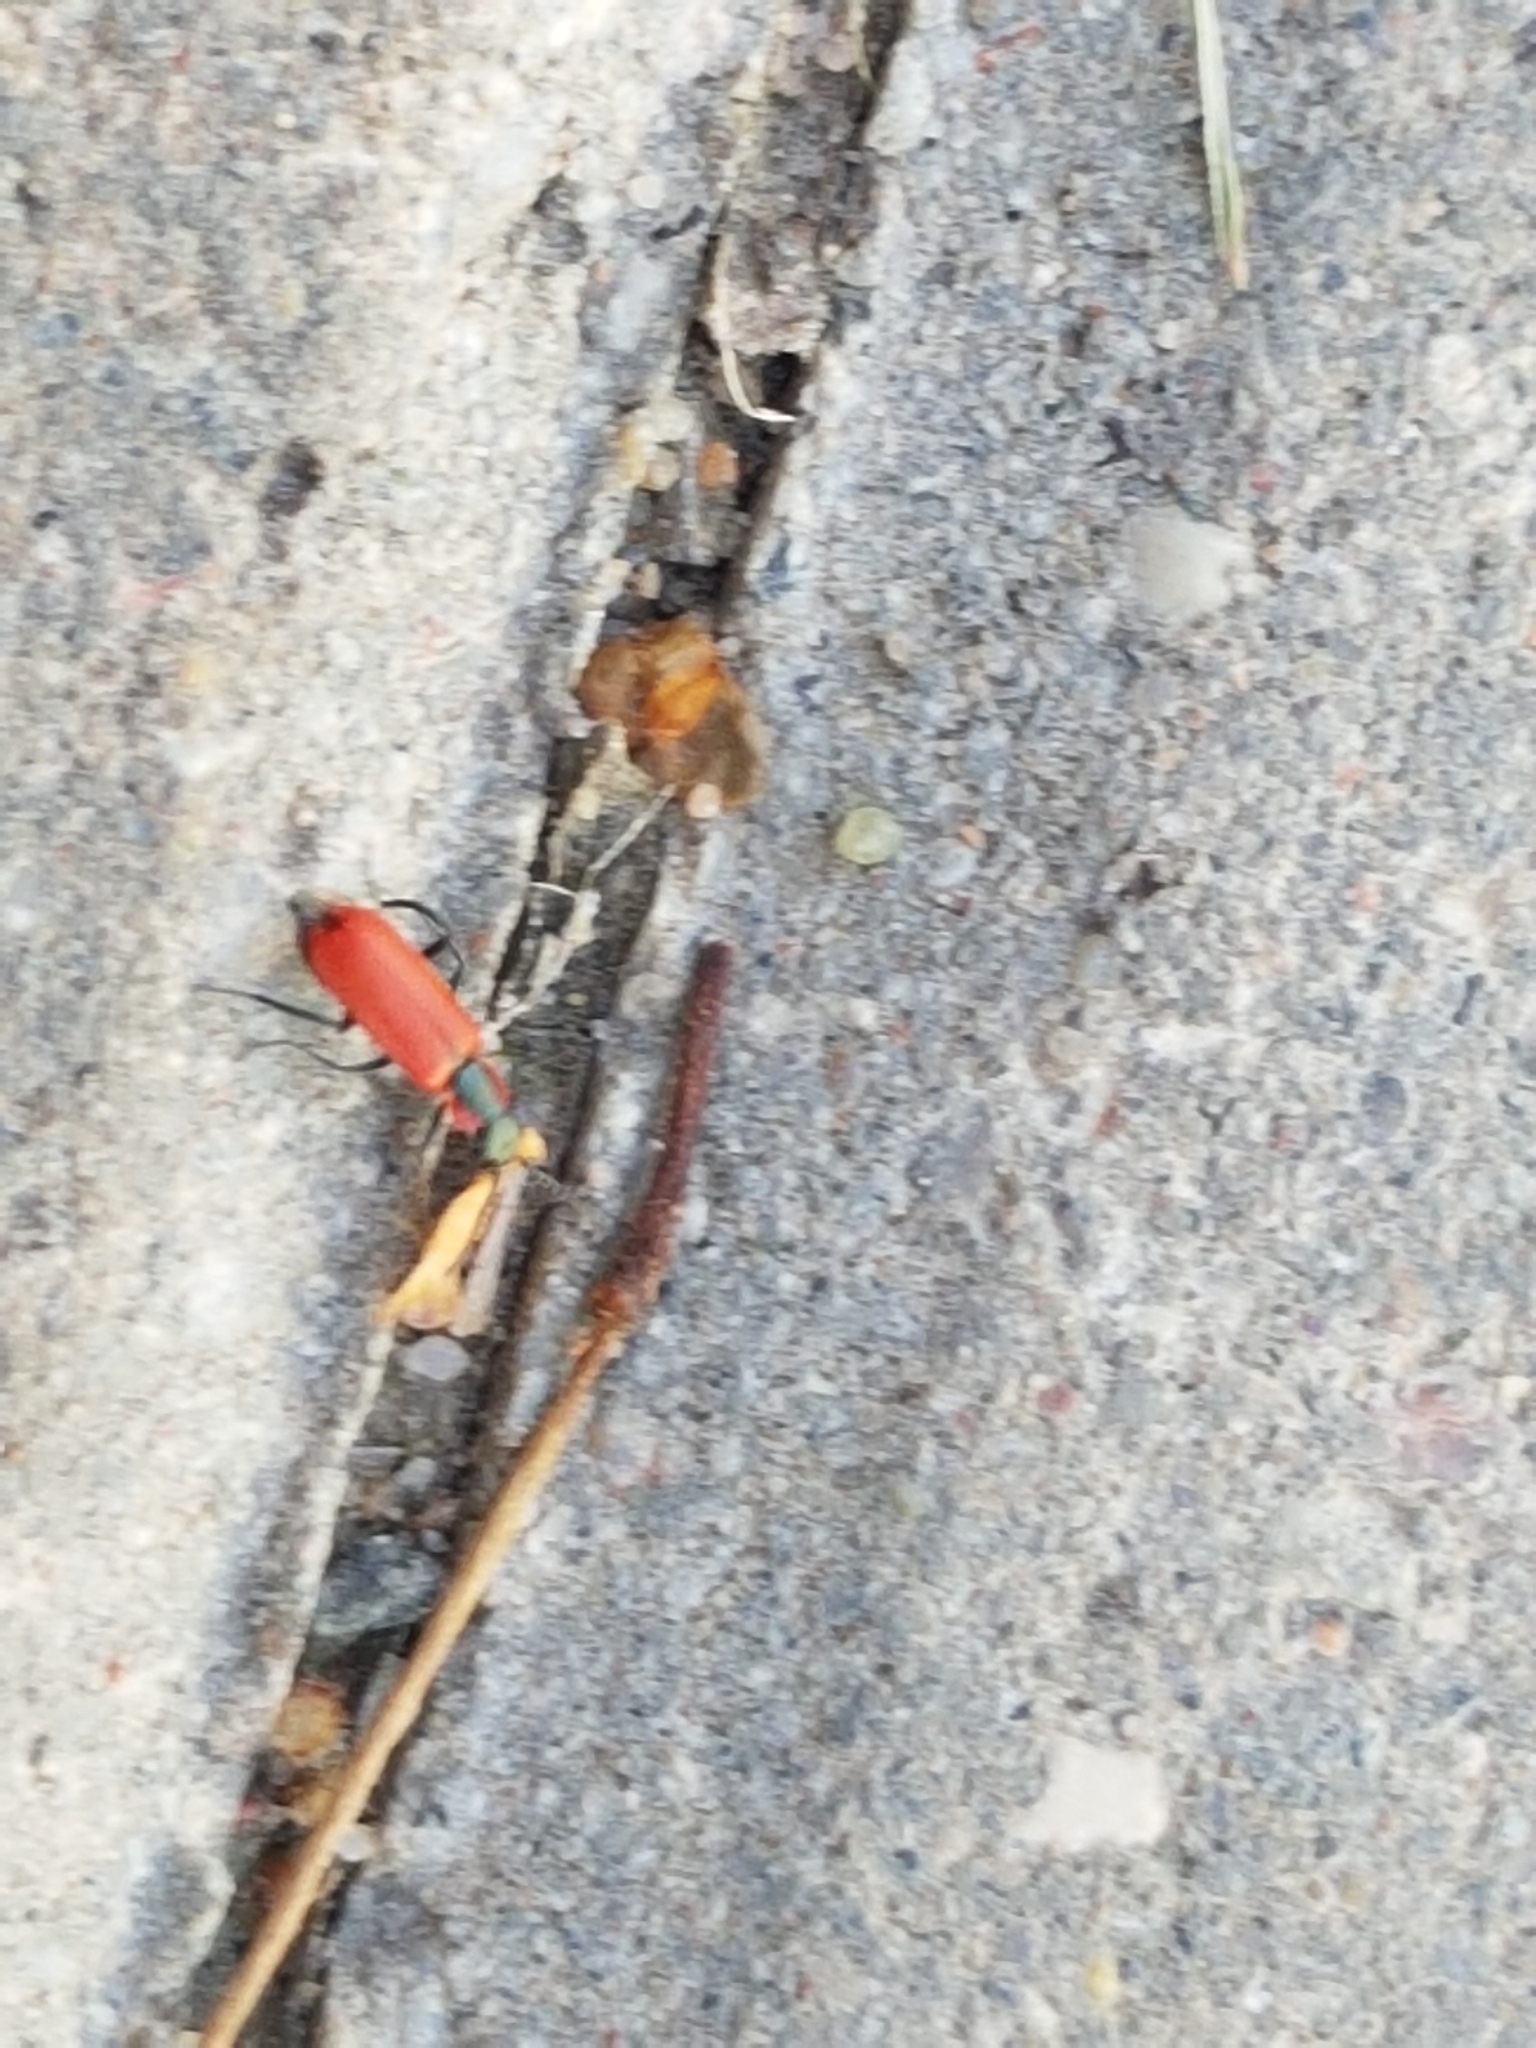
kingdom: Animalia
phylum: Arthropoda
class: Insecta
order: Coleoptera
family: Melyridae
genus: Anthocomus
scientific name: Anthocomus rufus
